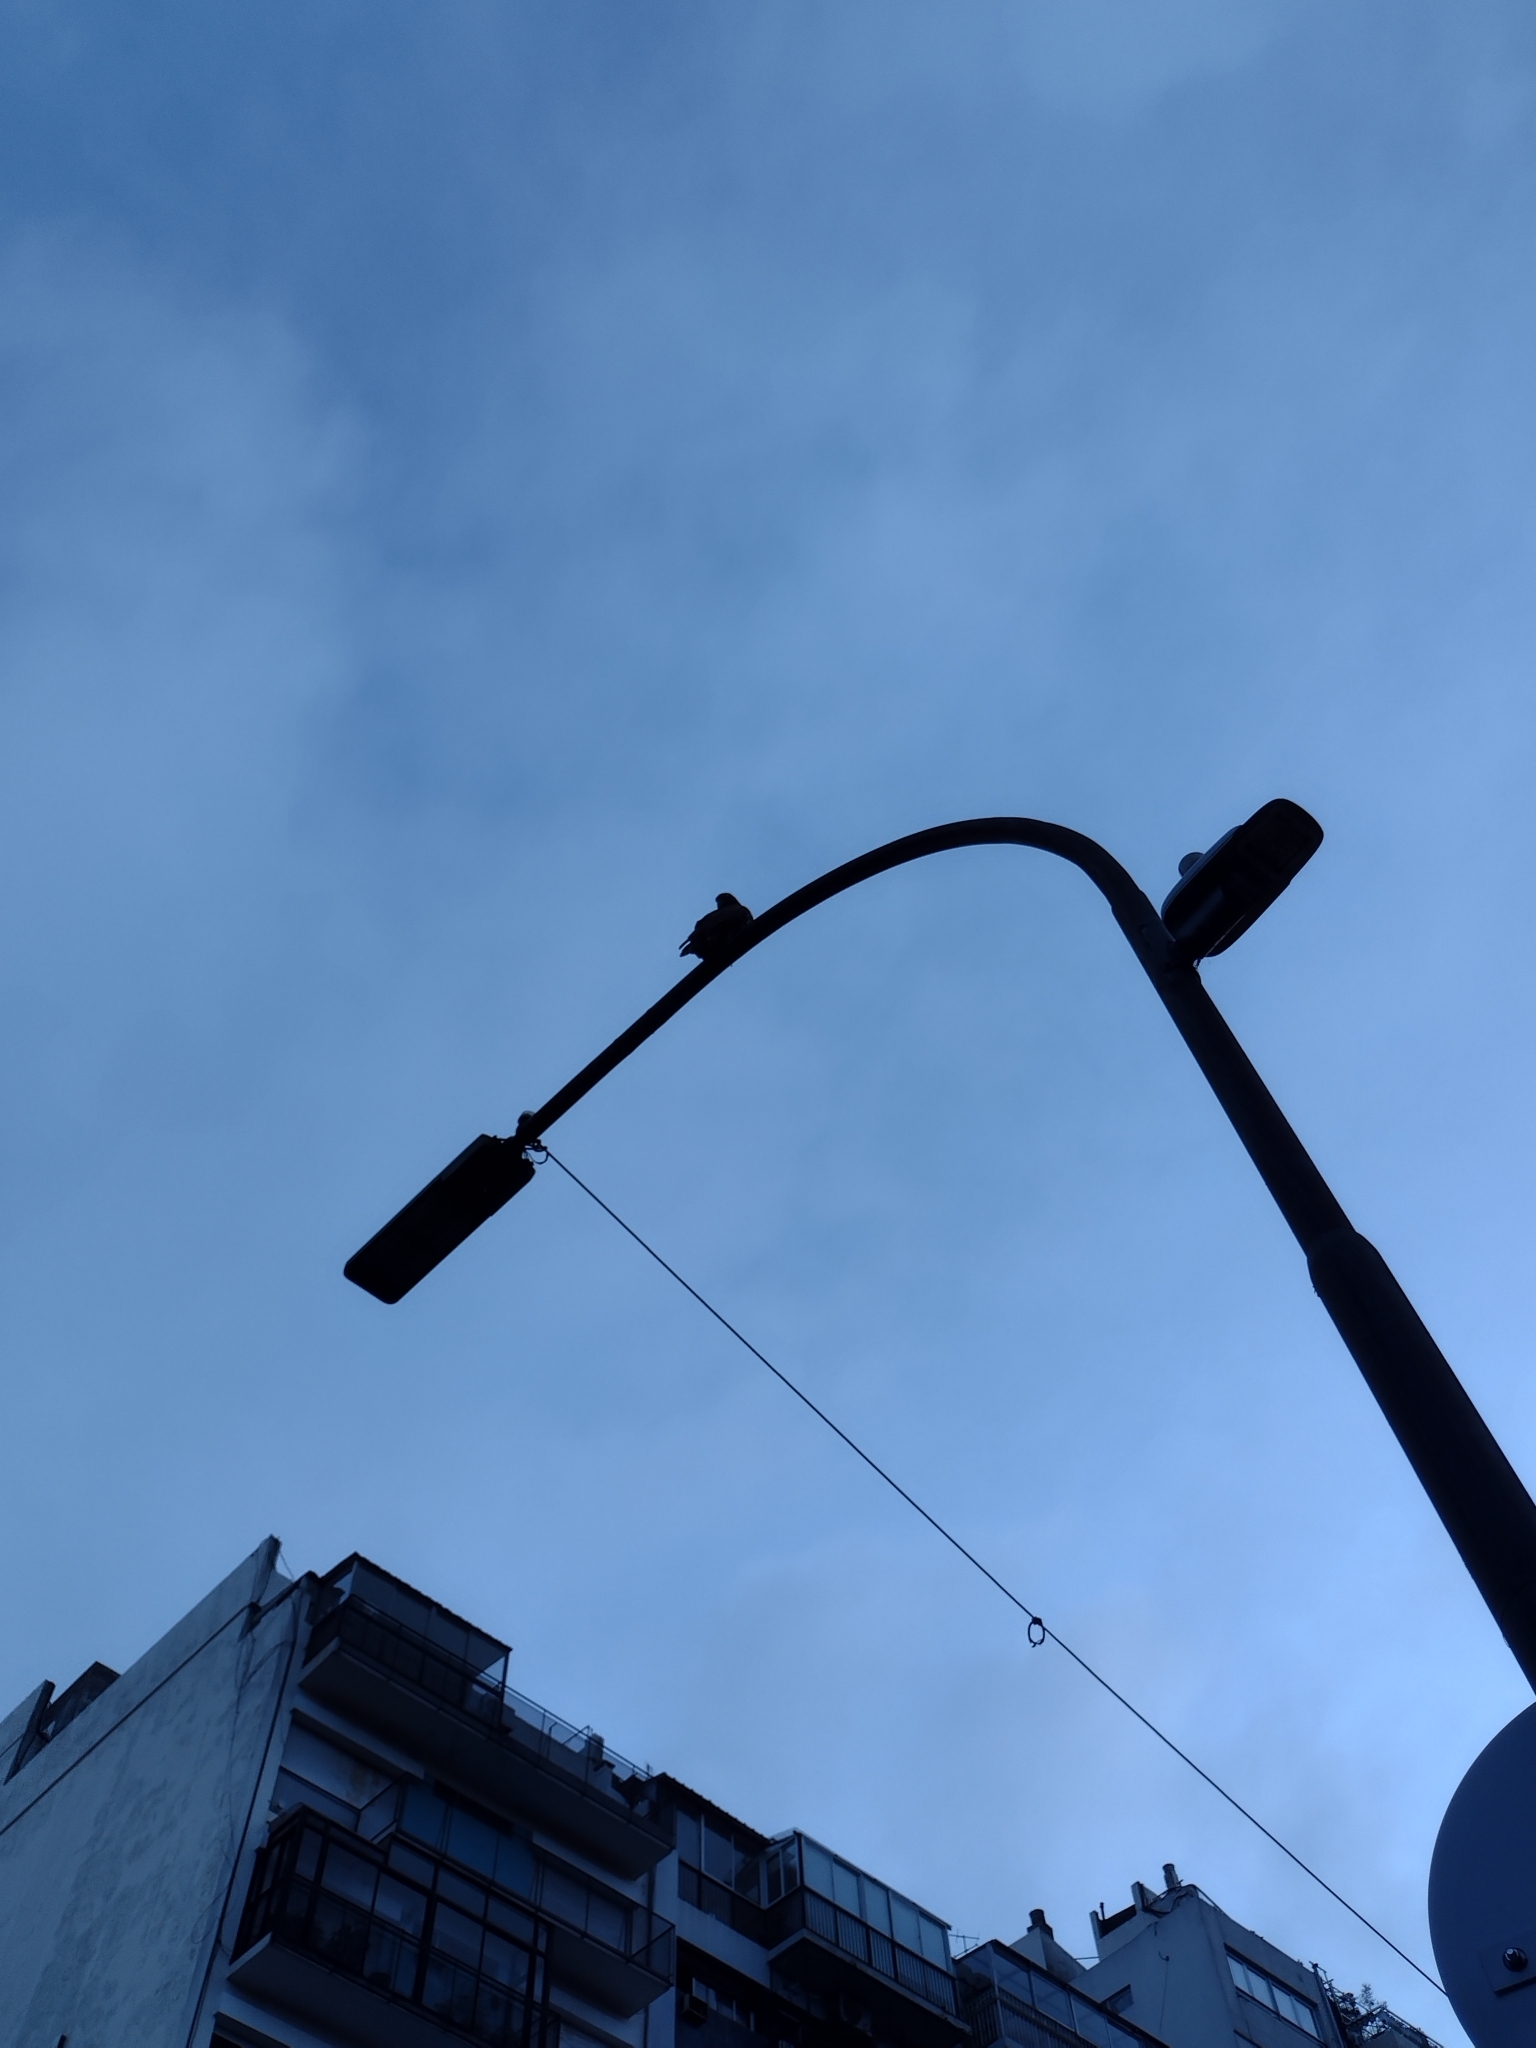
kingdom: Animalia
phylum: Chordata
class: Aves
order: Accipitriformes
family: Accipitridae
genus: Parabuteo
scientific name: Parabuteo unicinctus
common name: Harris's hawk
